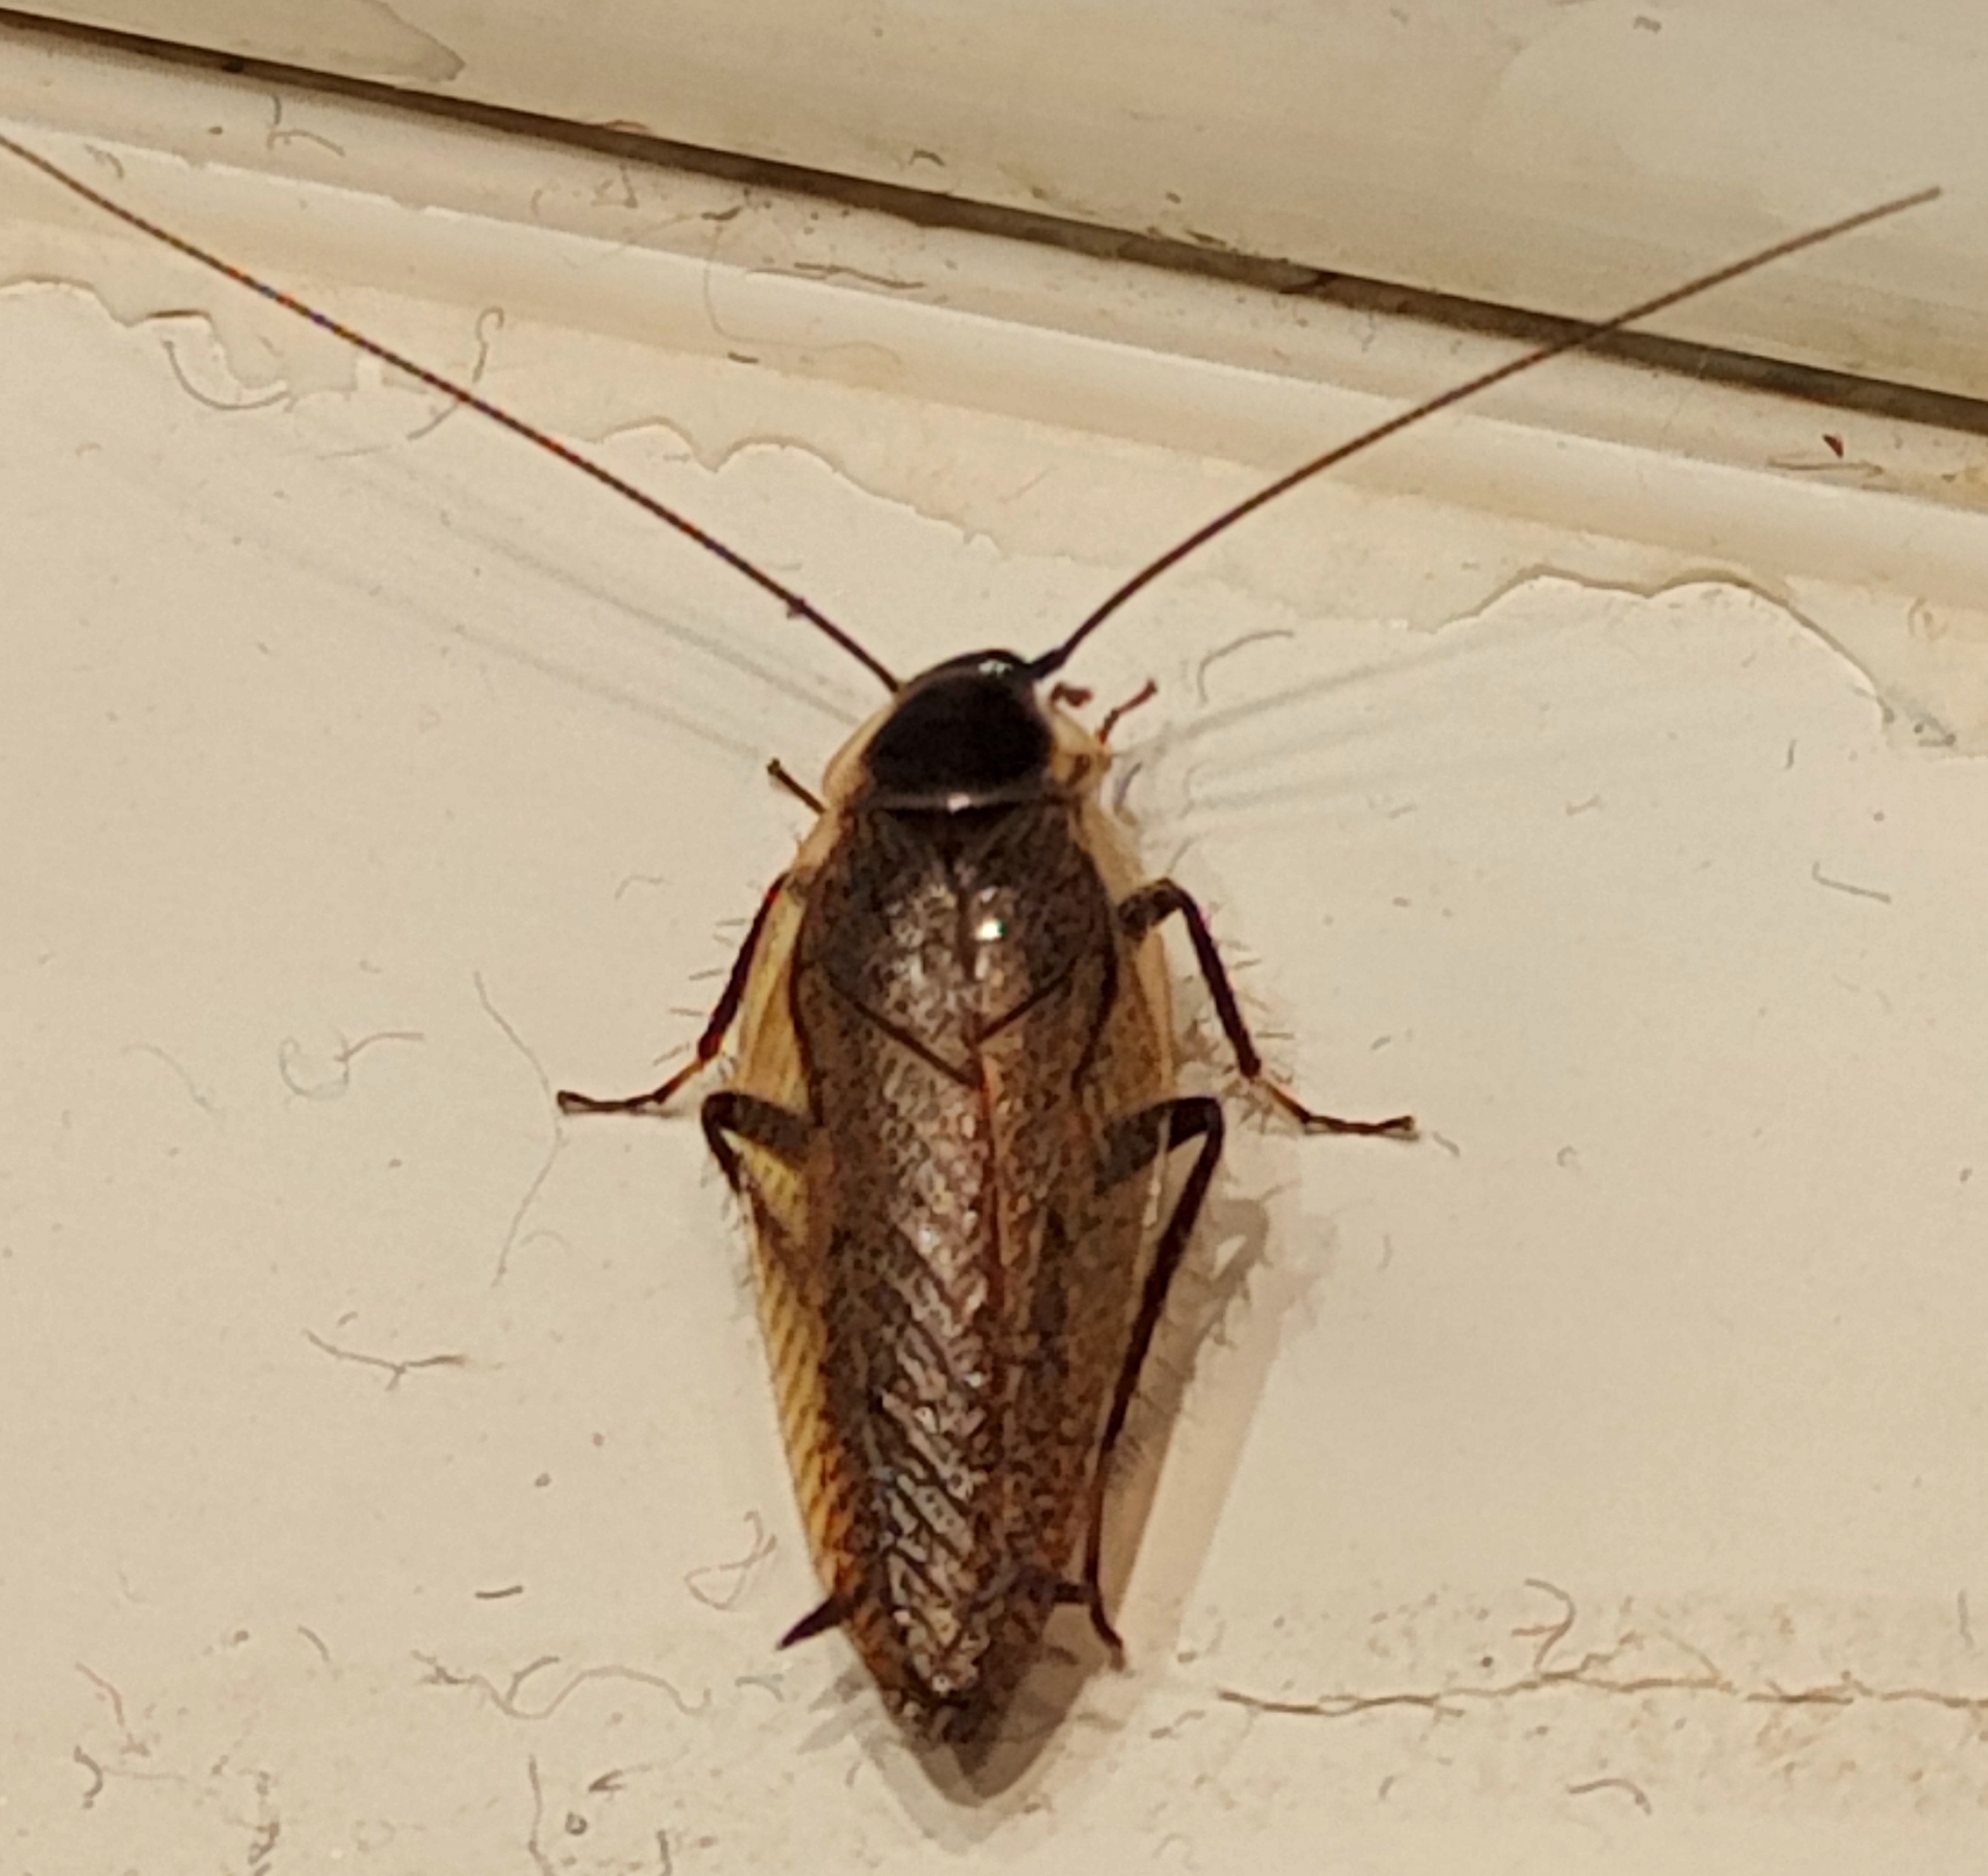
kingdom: Animalia
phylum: Arthropoda
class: Insecta
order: Blattodea
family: Ectobiidae
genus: Ectobius
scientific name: Ectobius lapponicus
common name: Dusky cockroach
